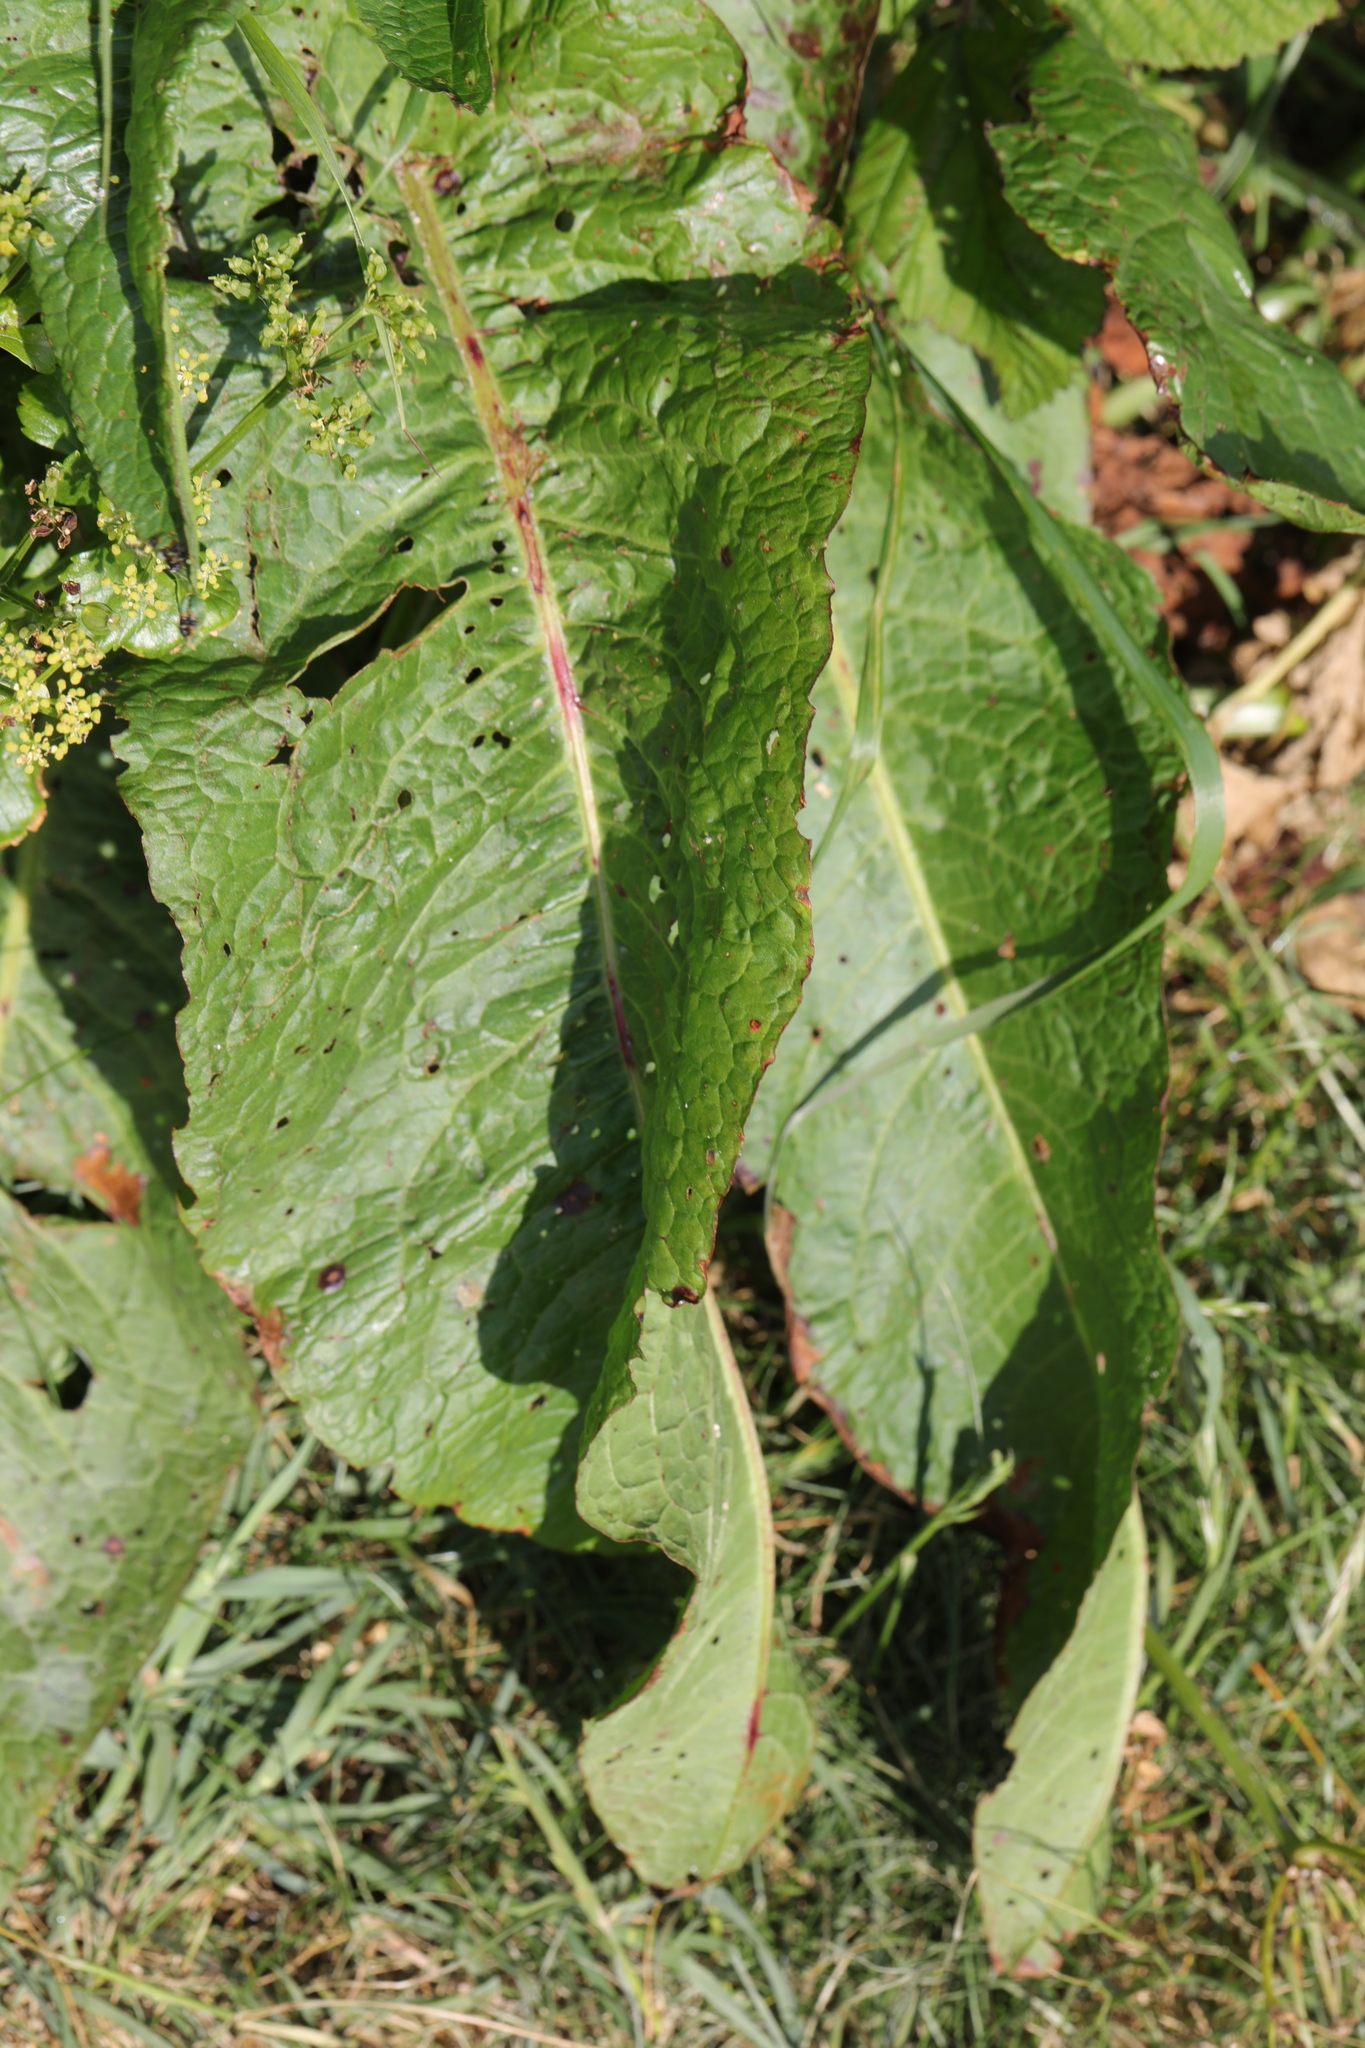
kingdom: Plantae
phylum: Tracheophyta
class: Magnoliopsida
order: Caryophyllales
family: Polygonaceae
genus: Rumex
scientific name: Rumex obtusifolius
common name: Bitter dock
